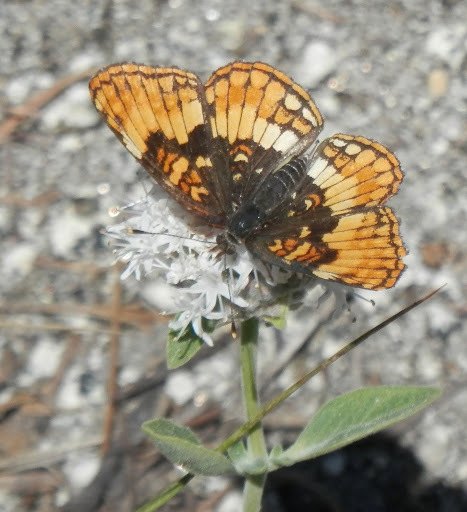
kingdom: Animalia
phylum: Arthropoda
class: Insecta
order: Lepidoptera
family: Nymphalidae
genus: Chlosyne
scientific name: Chlosyne hoffmanni
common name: Hoffmann's checkerspot
